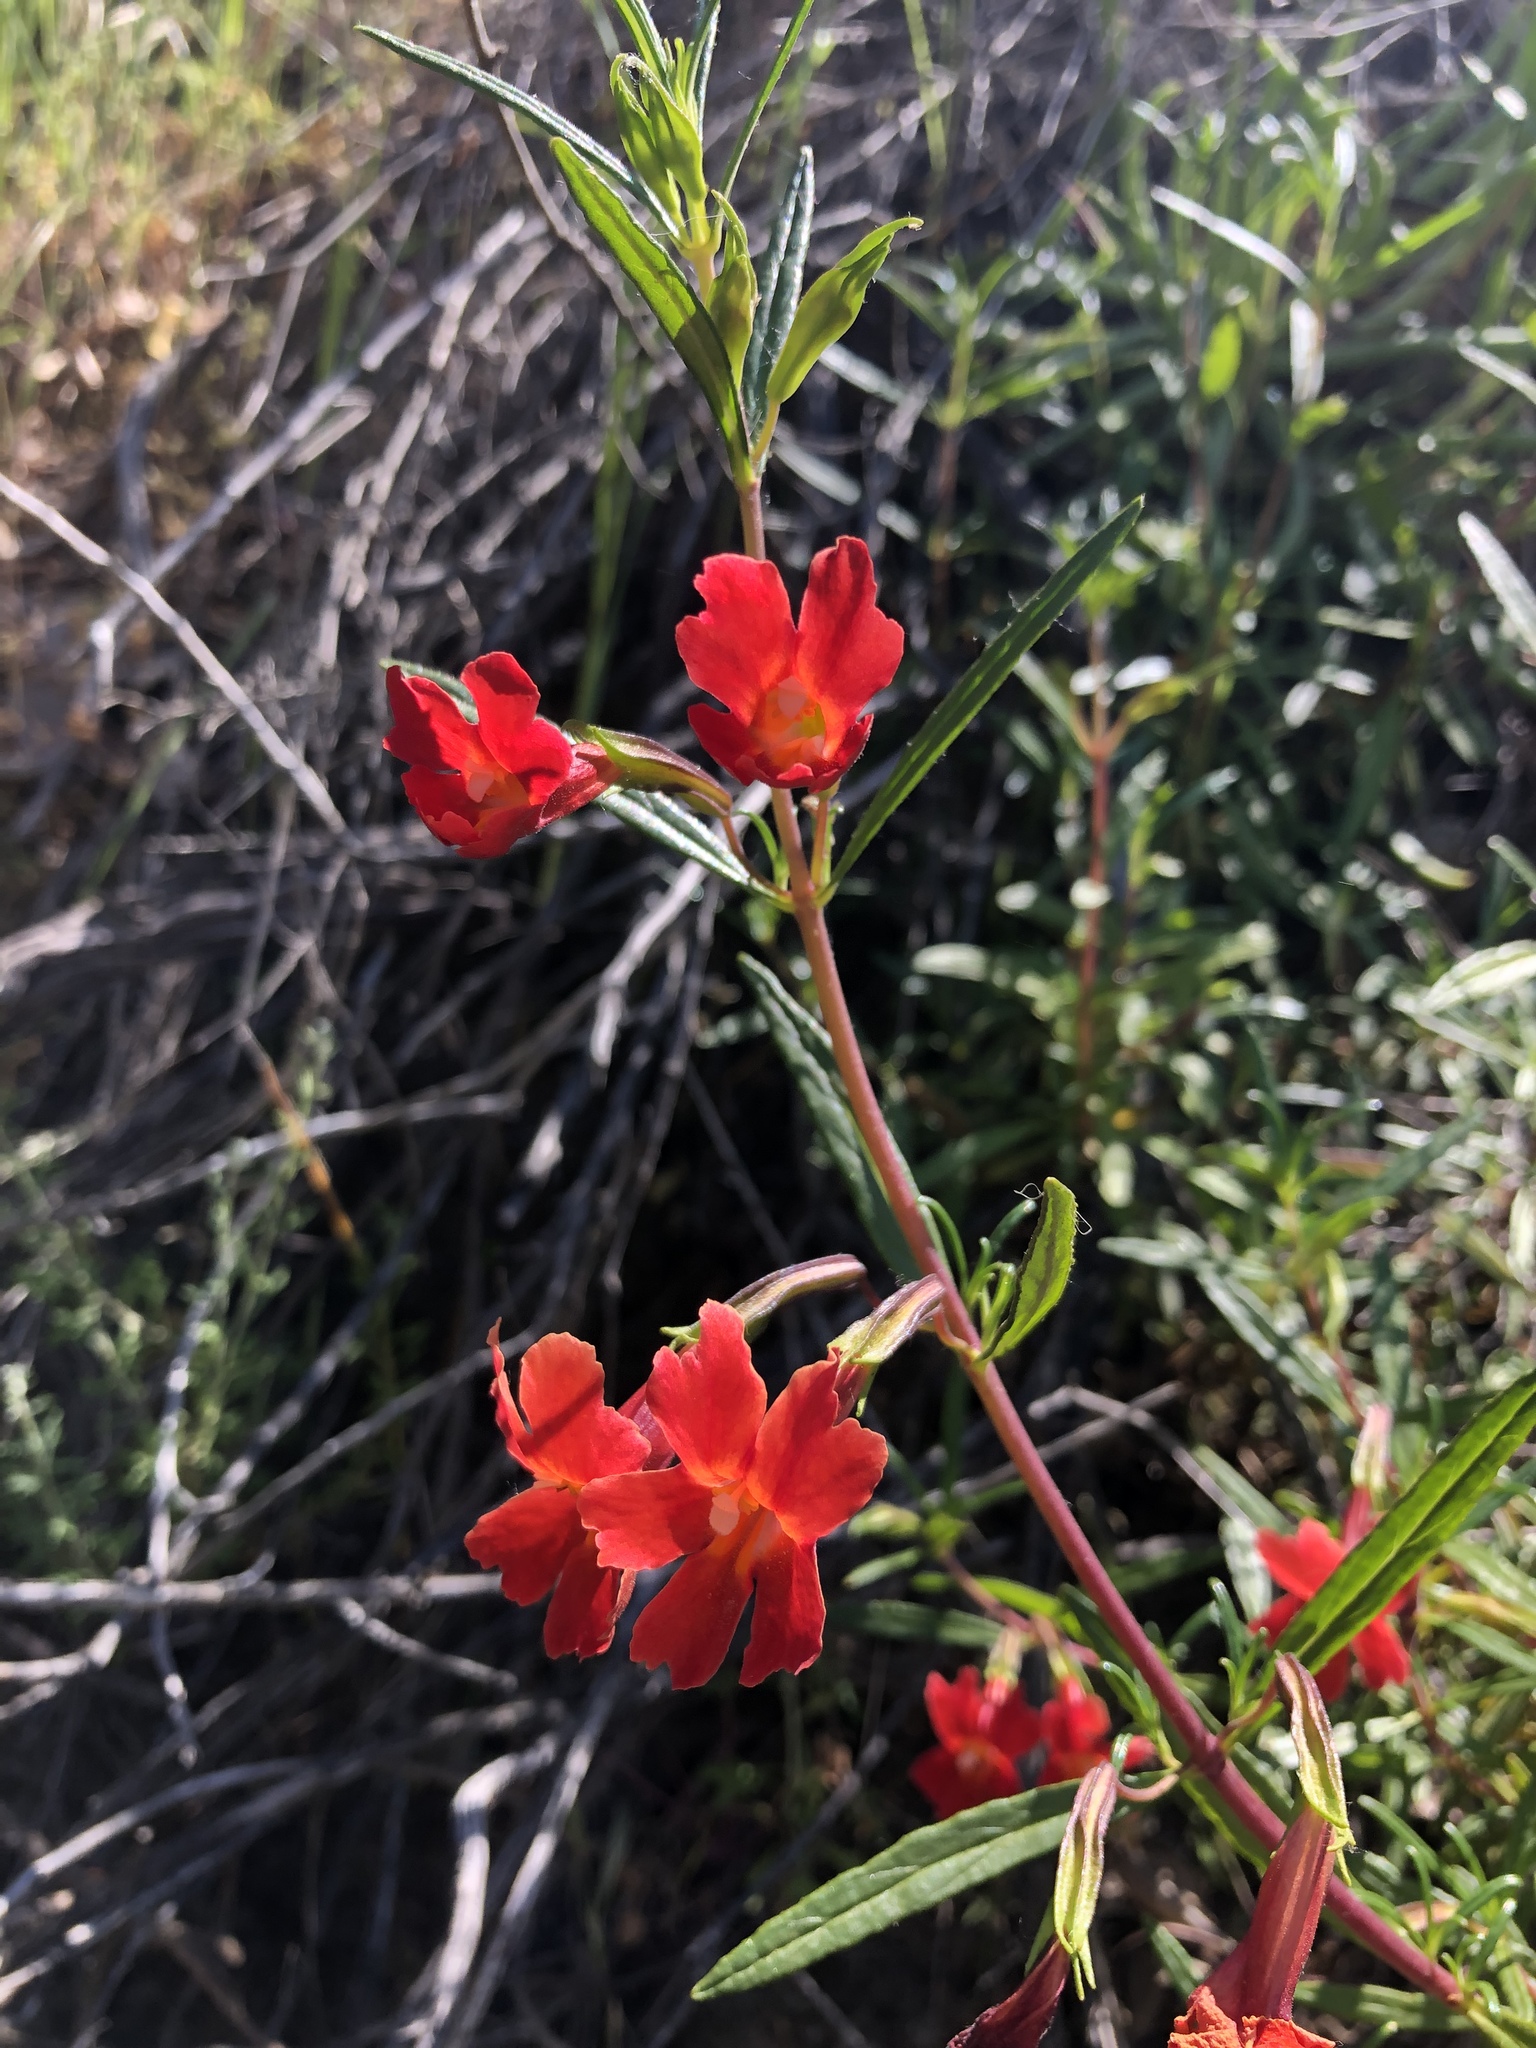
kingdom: Plantae
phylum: Tracheophyta
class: Magnoliopsida
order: Lamiales
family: Phrymaceae
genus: Diplacus
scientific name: Diplacus puniceus
